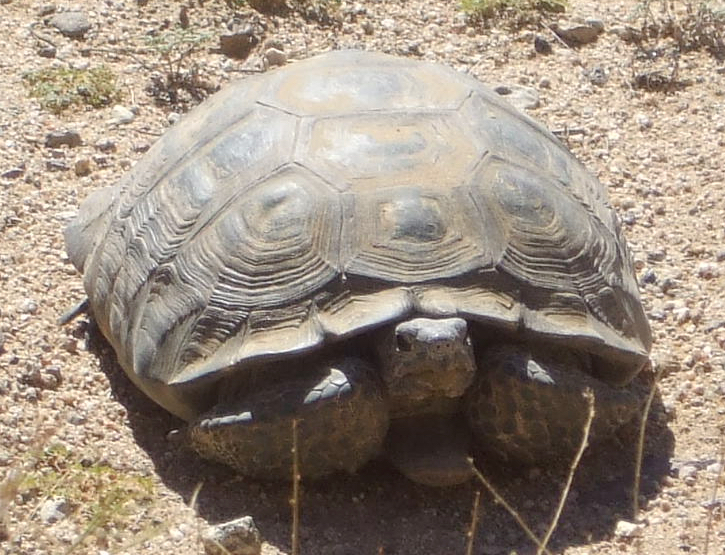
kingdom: Animalia
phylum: Chordata
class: Testudines
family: Testudinidae
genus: Gopherus
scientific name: Gopherus agassizii
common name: Mojave desert tortoise
